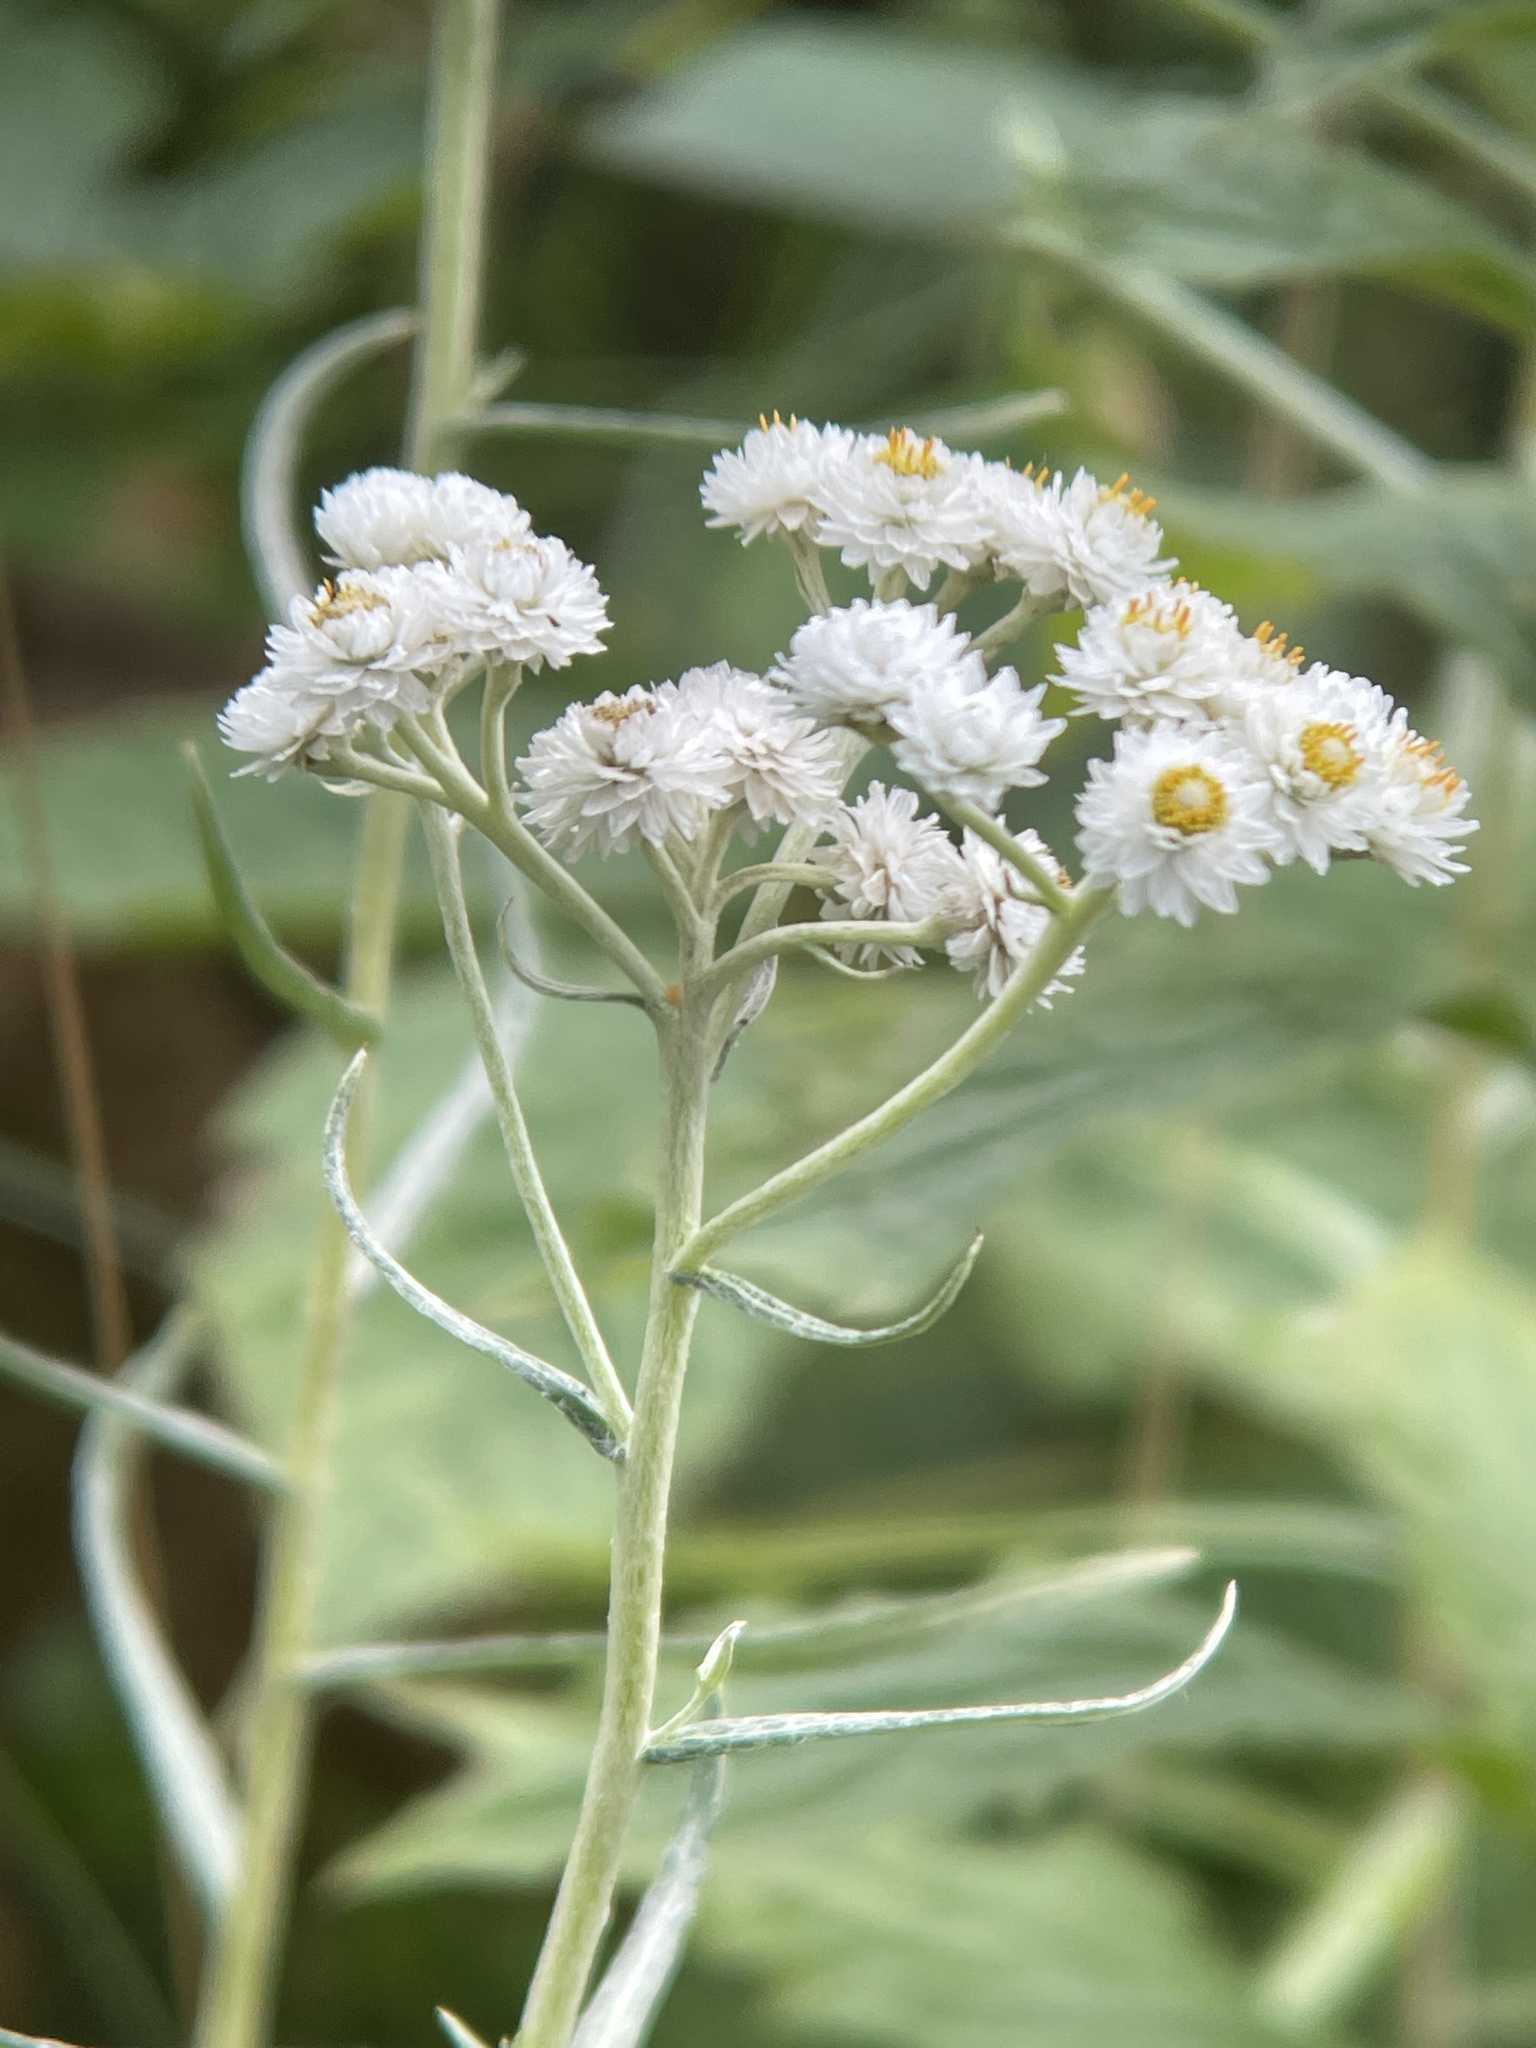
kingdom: Plantae
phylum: Tracheophyta
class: Magnoliopsida
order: Asterales
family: Asteraceae
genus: Anaphalis
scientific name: Anaphalis margaritacea
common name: Pearly everlasting
